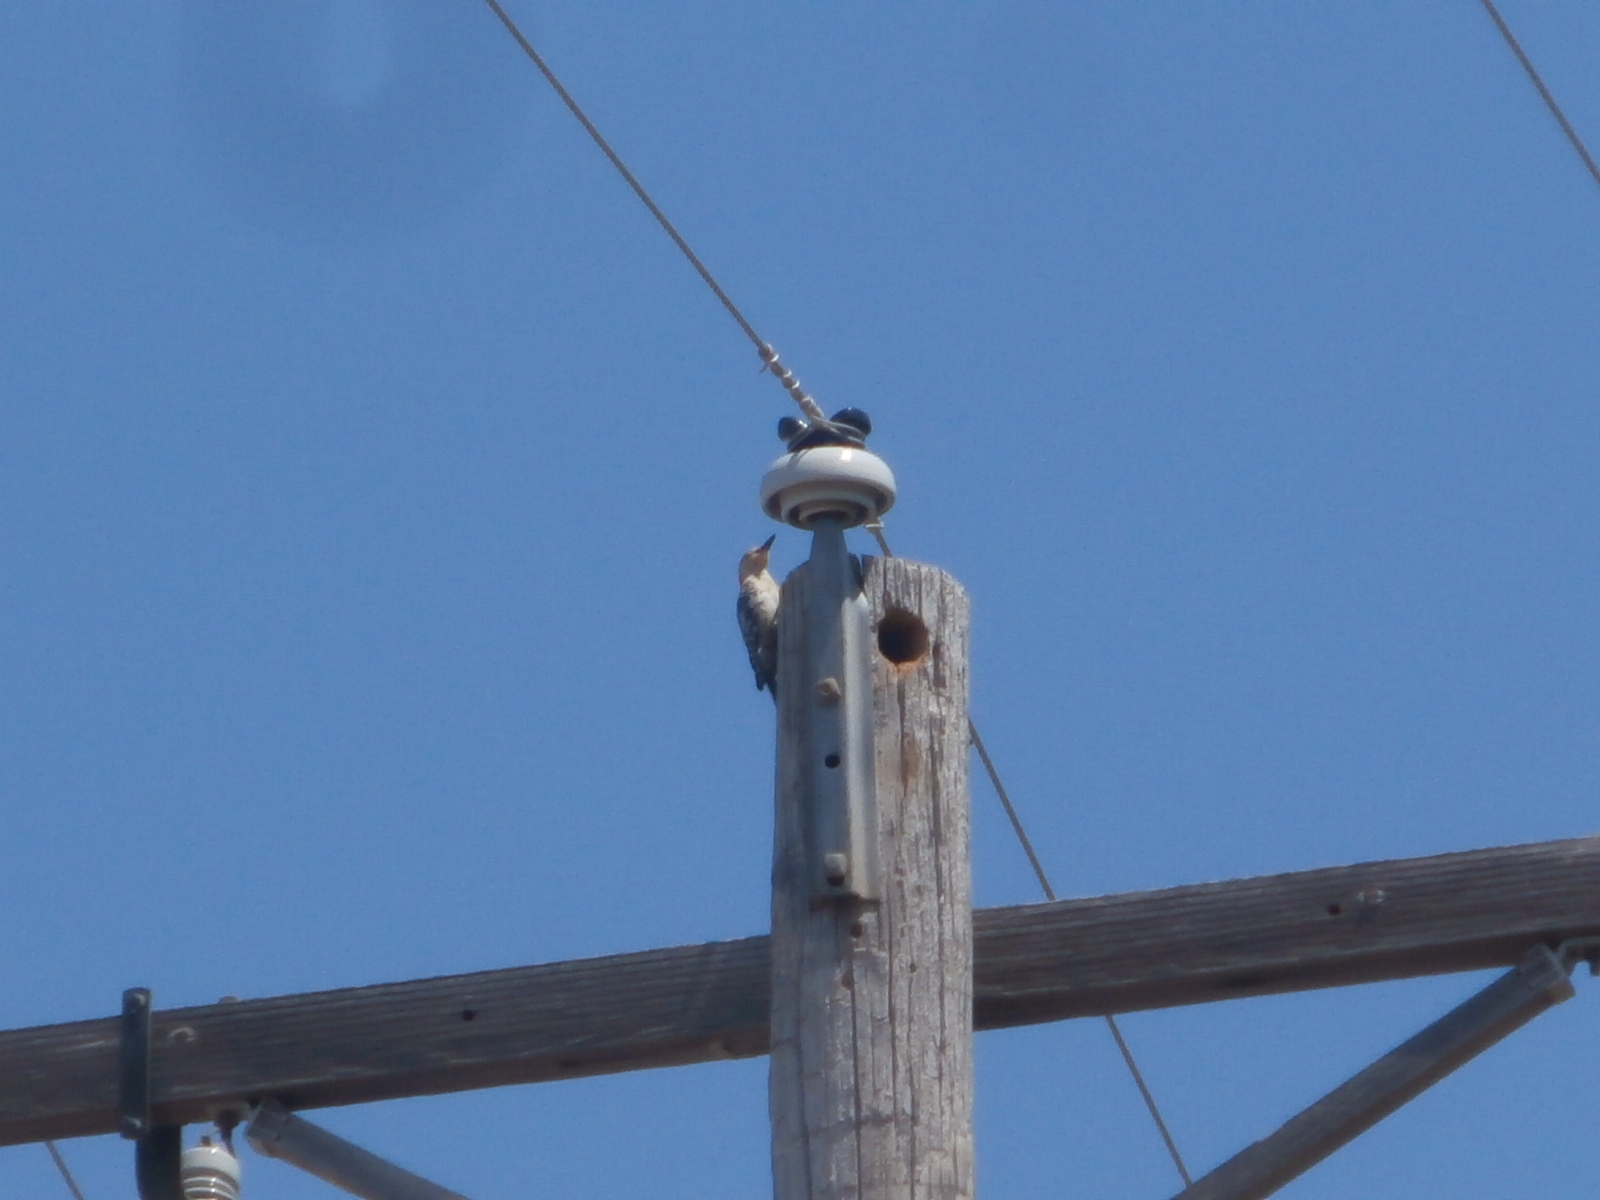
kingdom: Animalia
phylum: Chordata
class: Aves
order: Piciformes
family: Picidae
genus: Melanerpes
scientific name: Melanerpes carolinus
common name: Red-bellied woodpecker
